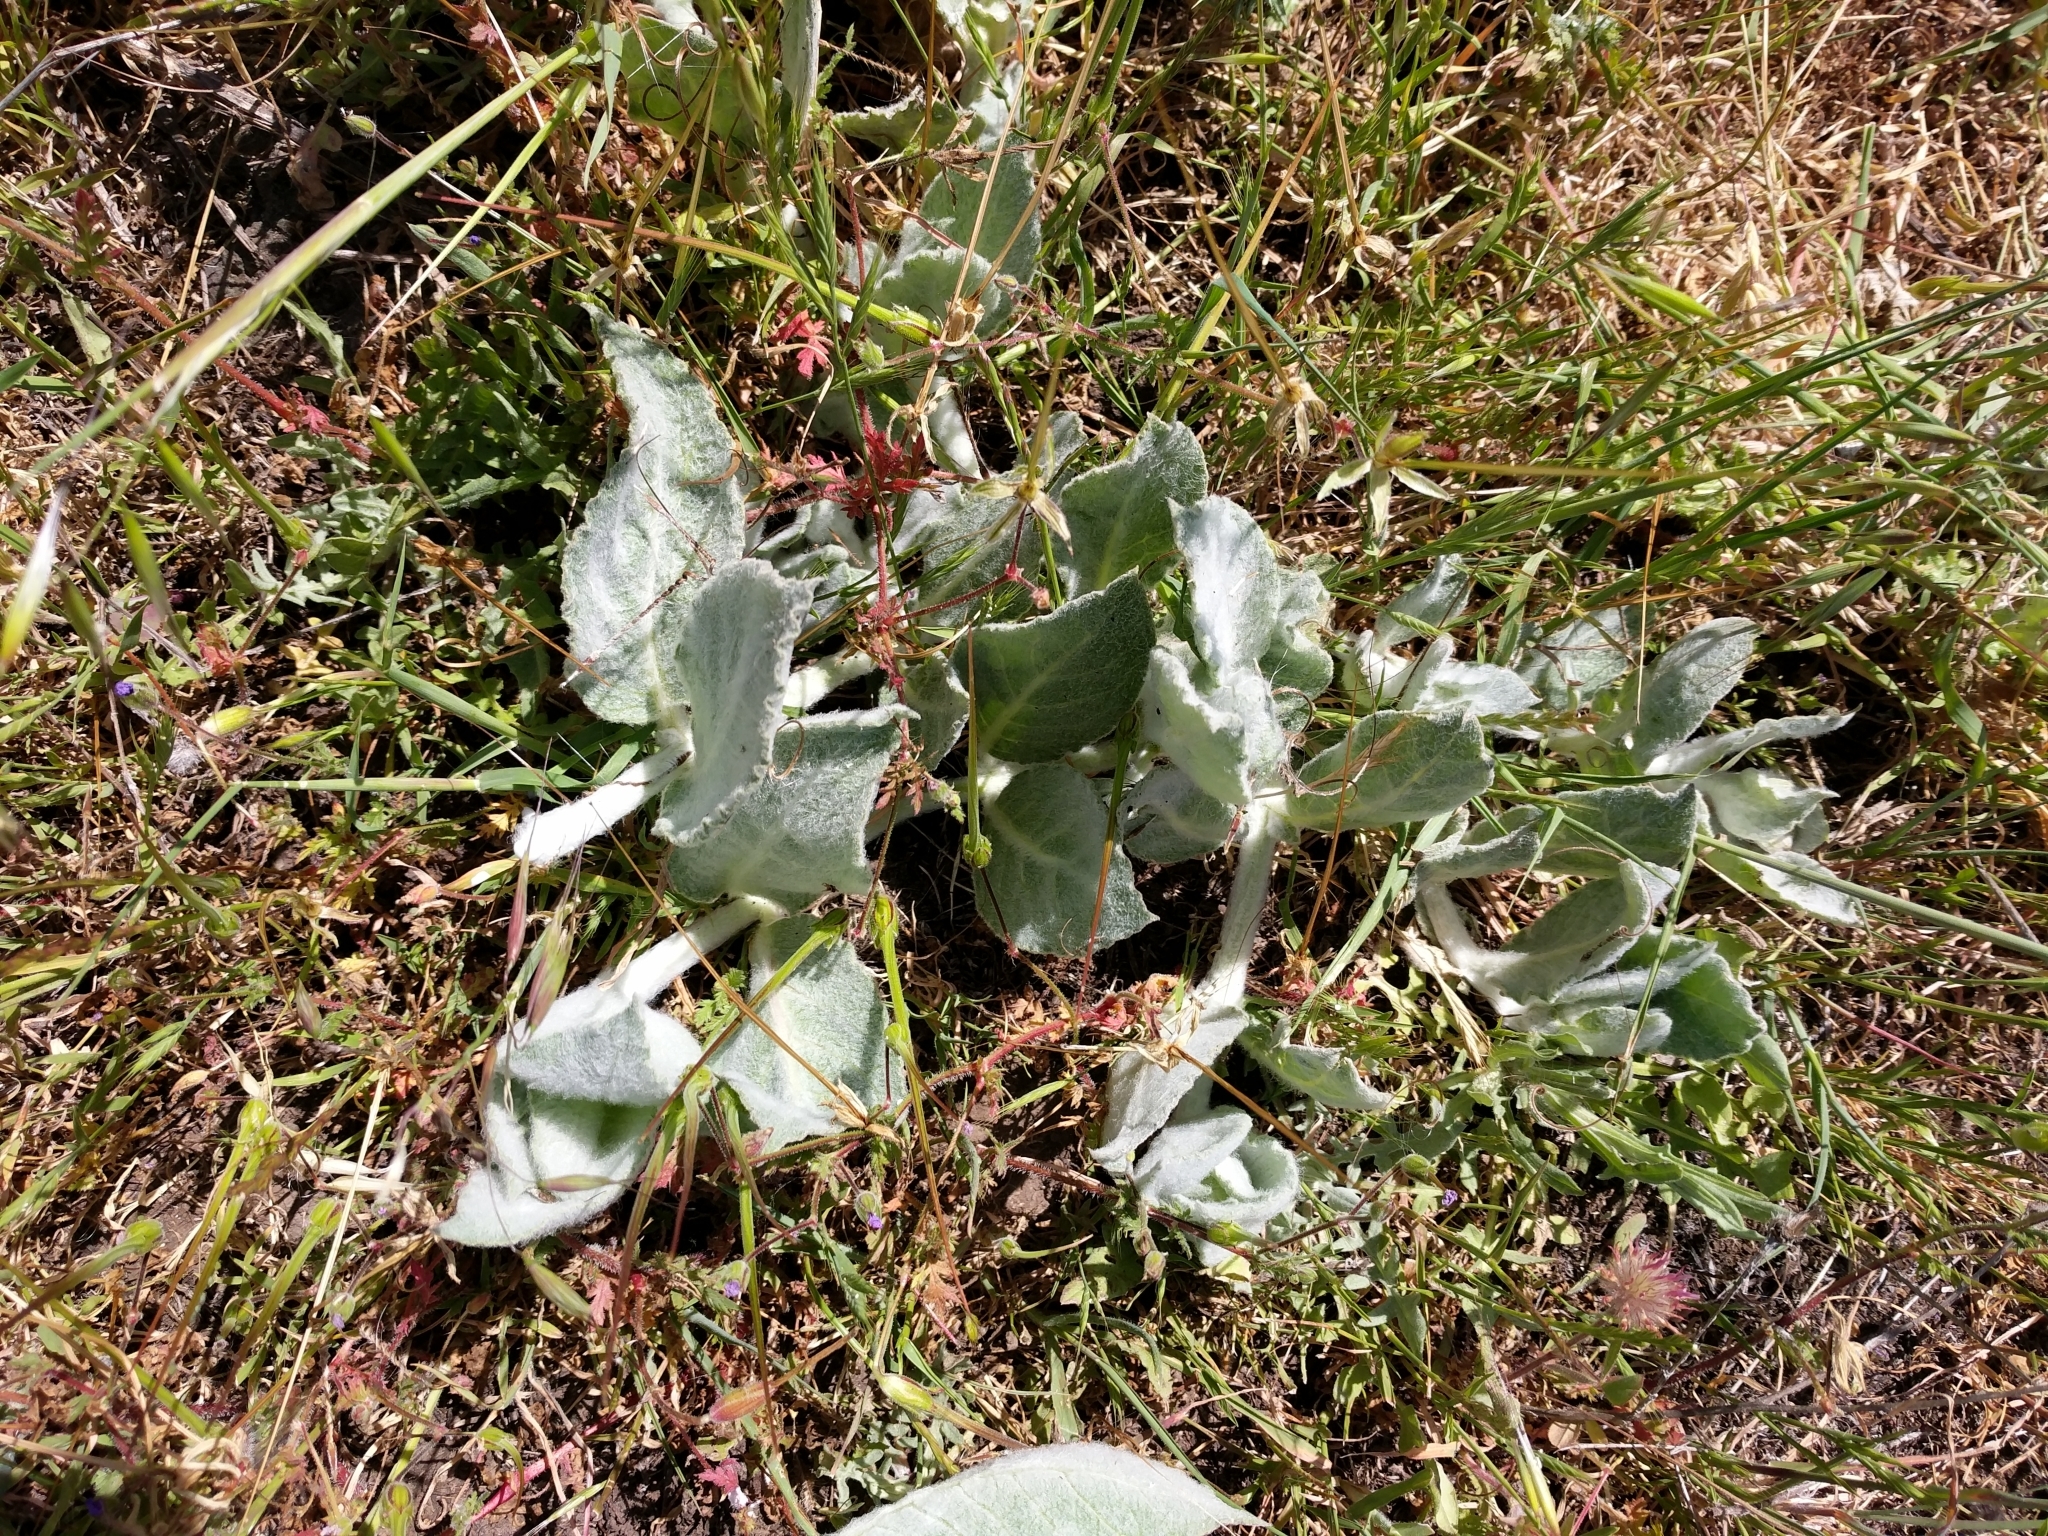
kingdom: Plantae
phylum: Tracheophyta
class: Magnoliopsida
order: Gentianales
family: Apocynaceae
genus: Asclepias
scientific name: Asclepias californica
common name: California milkweed
